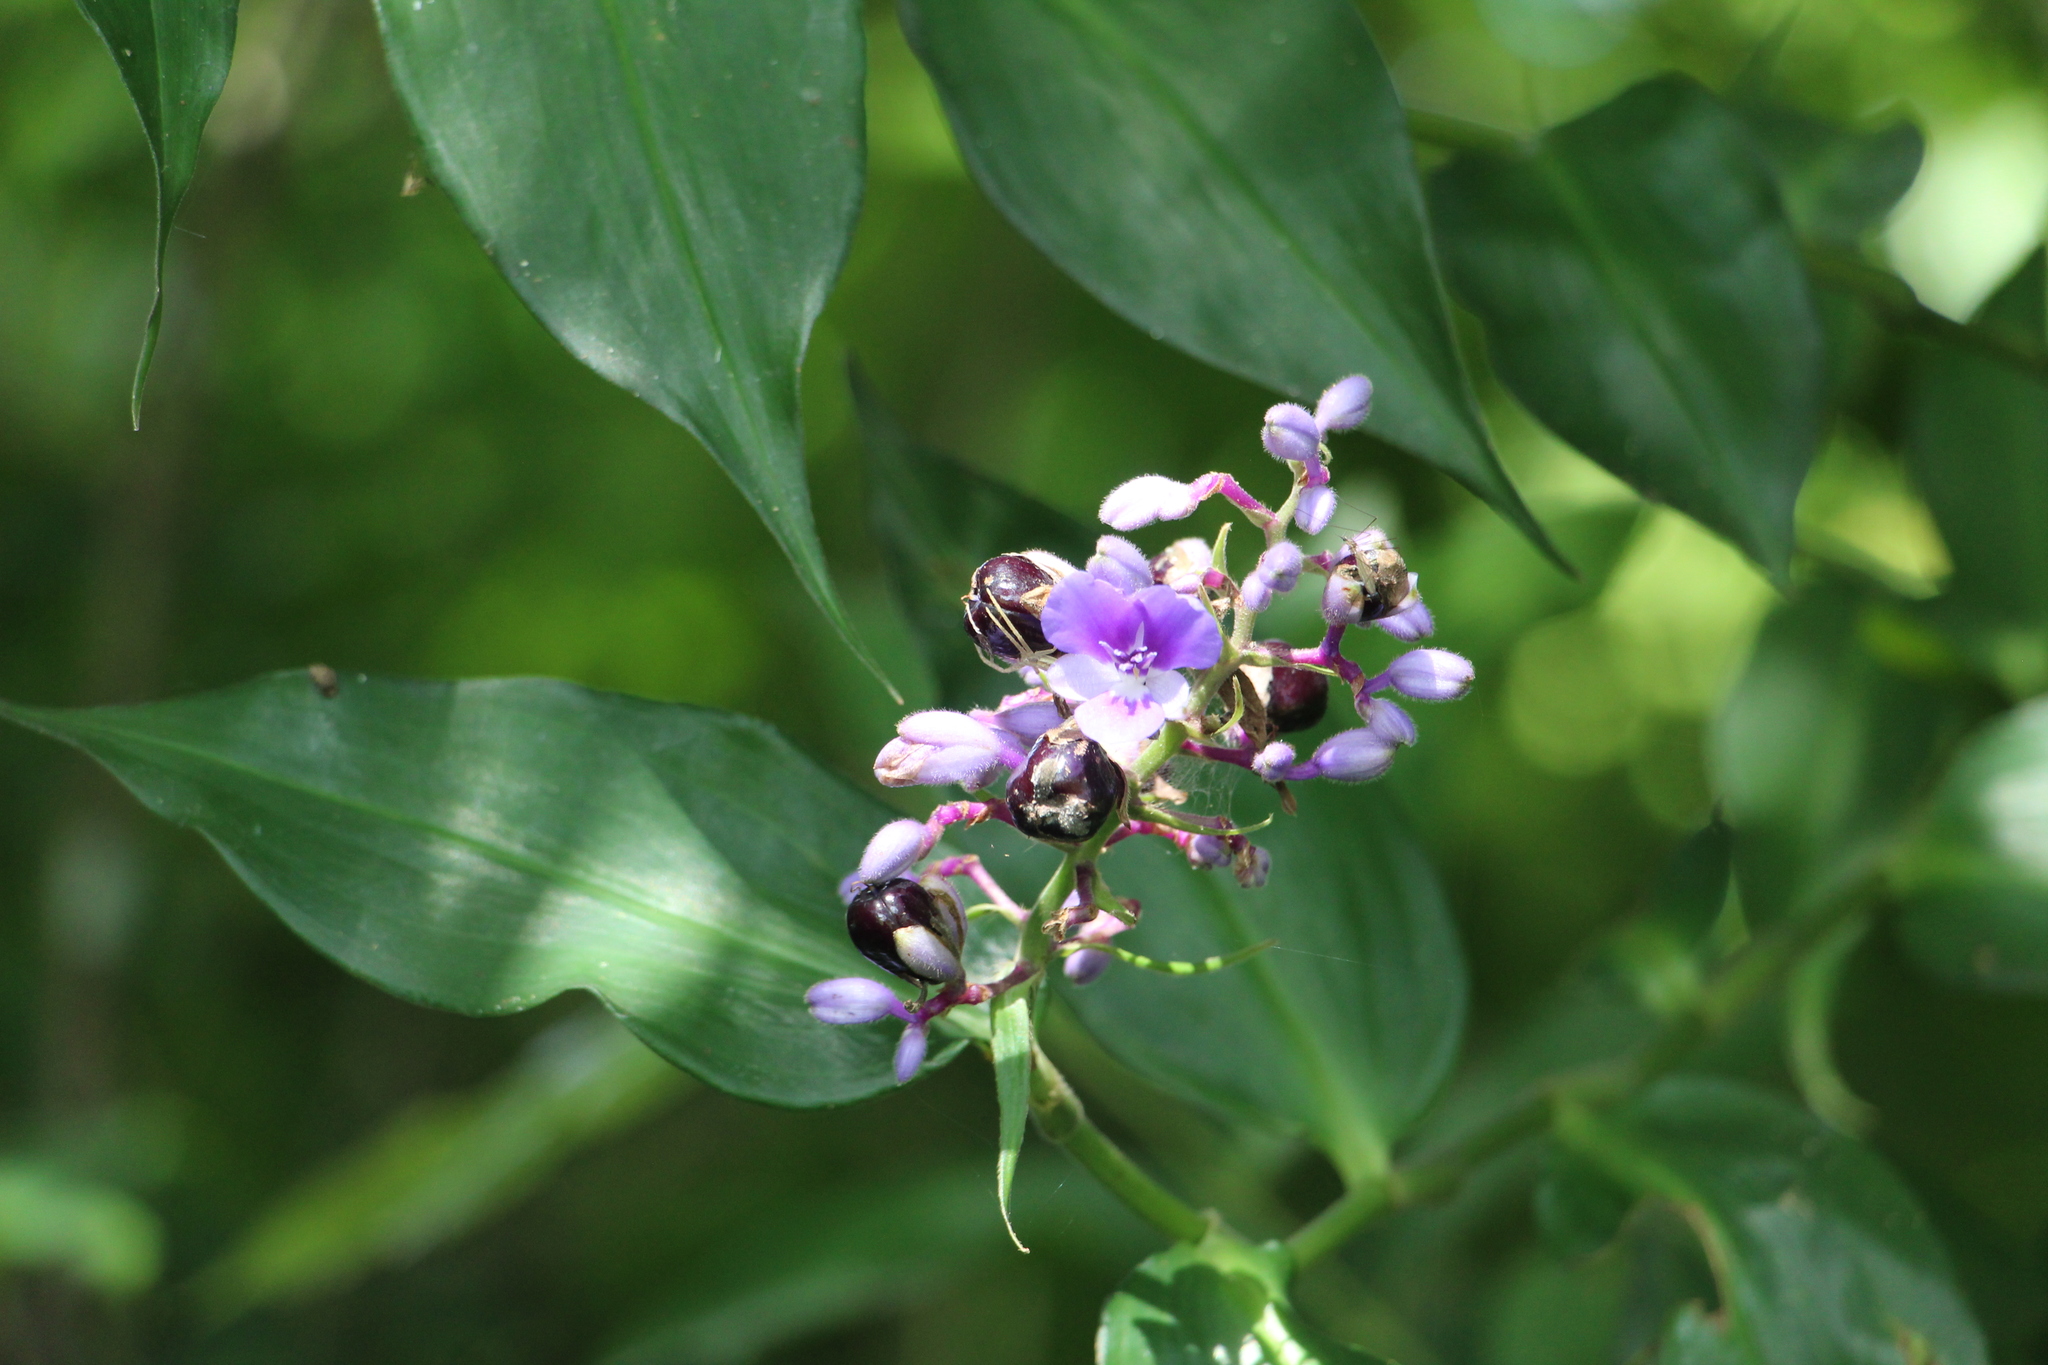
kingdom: Plantae
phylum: Tracheophyta
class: Liliopsida
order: Commelinales
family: Commelinaceae
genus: Dichorisandra
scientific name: Dichorisandra villosula
